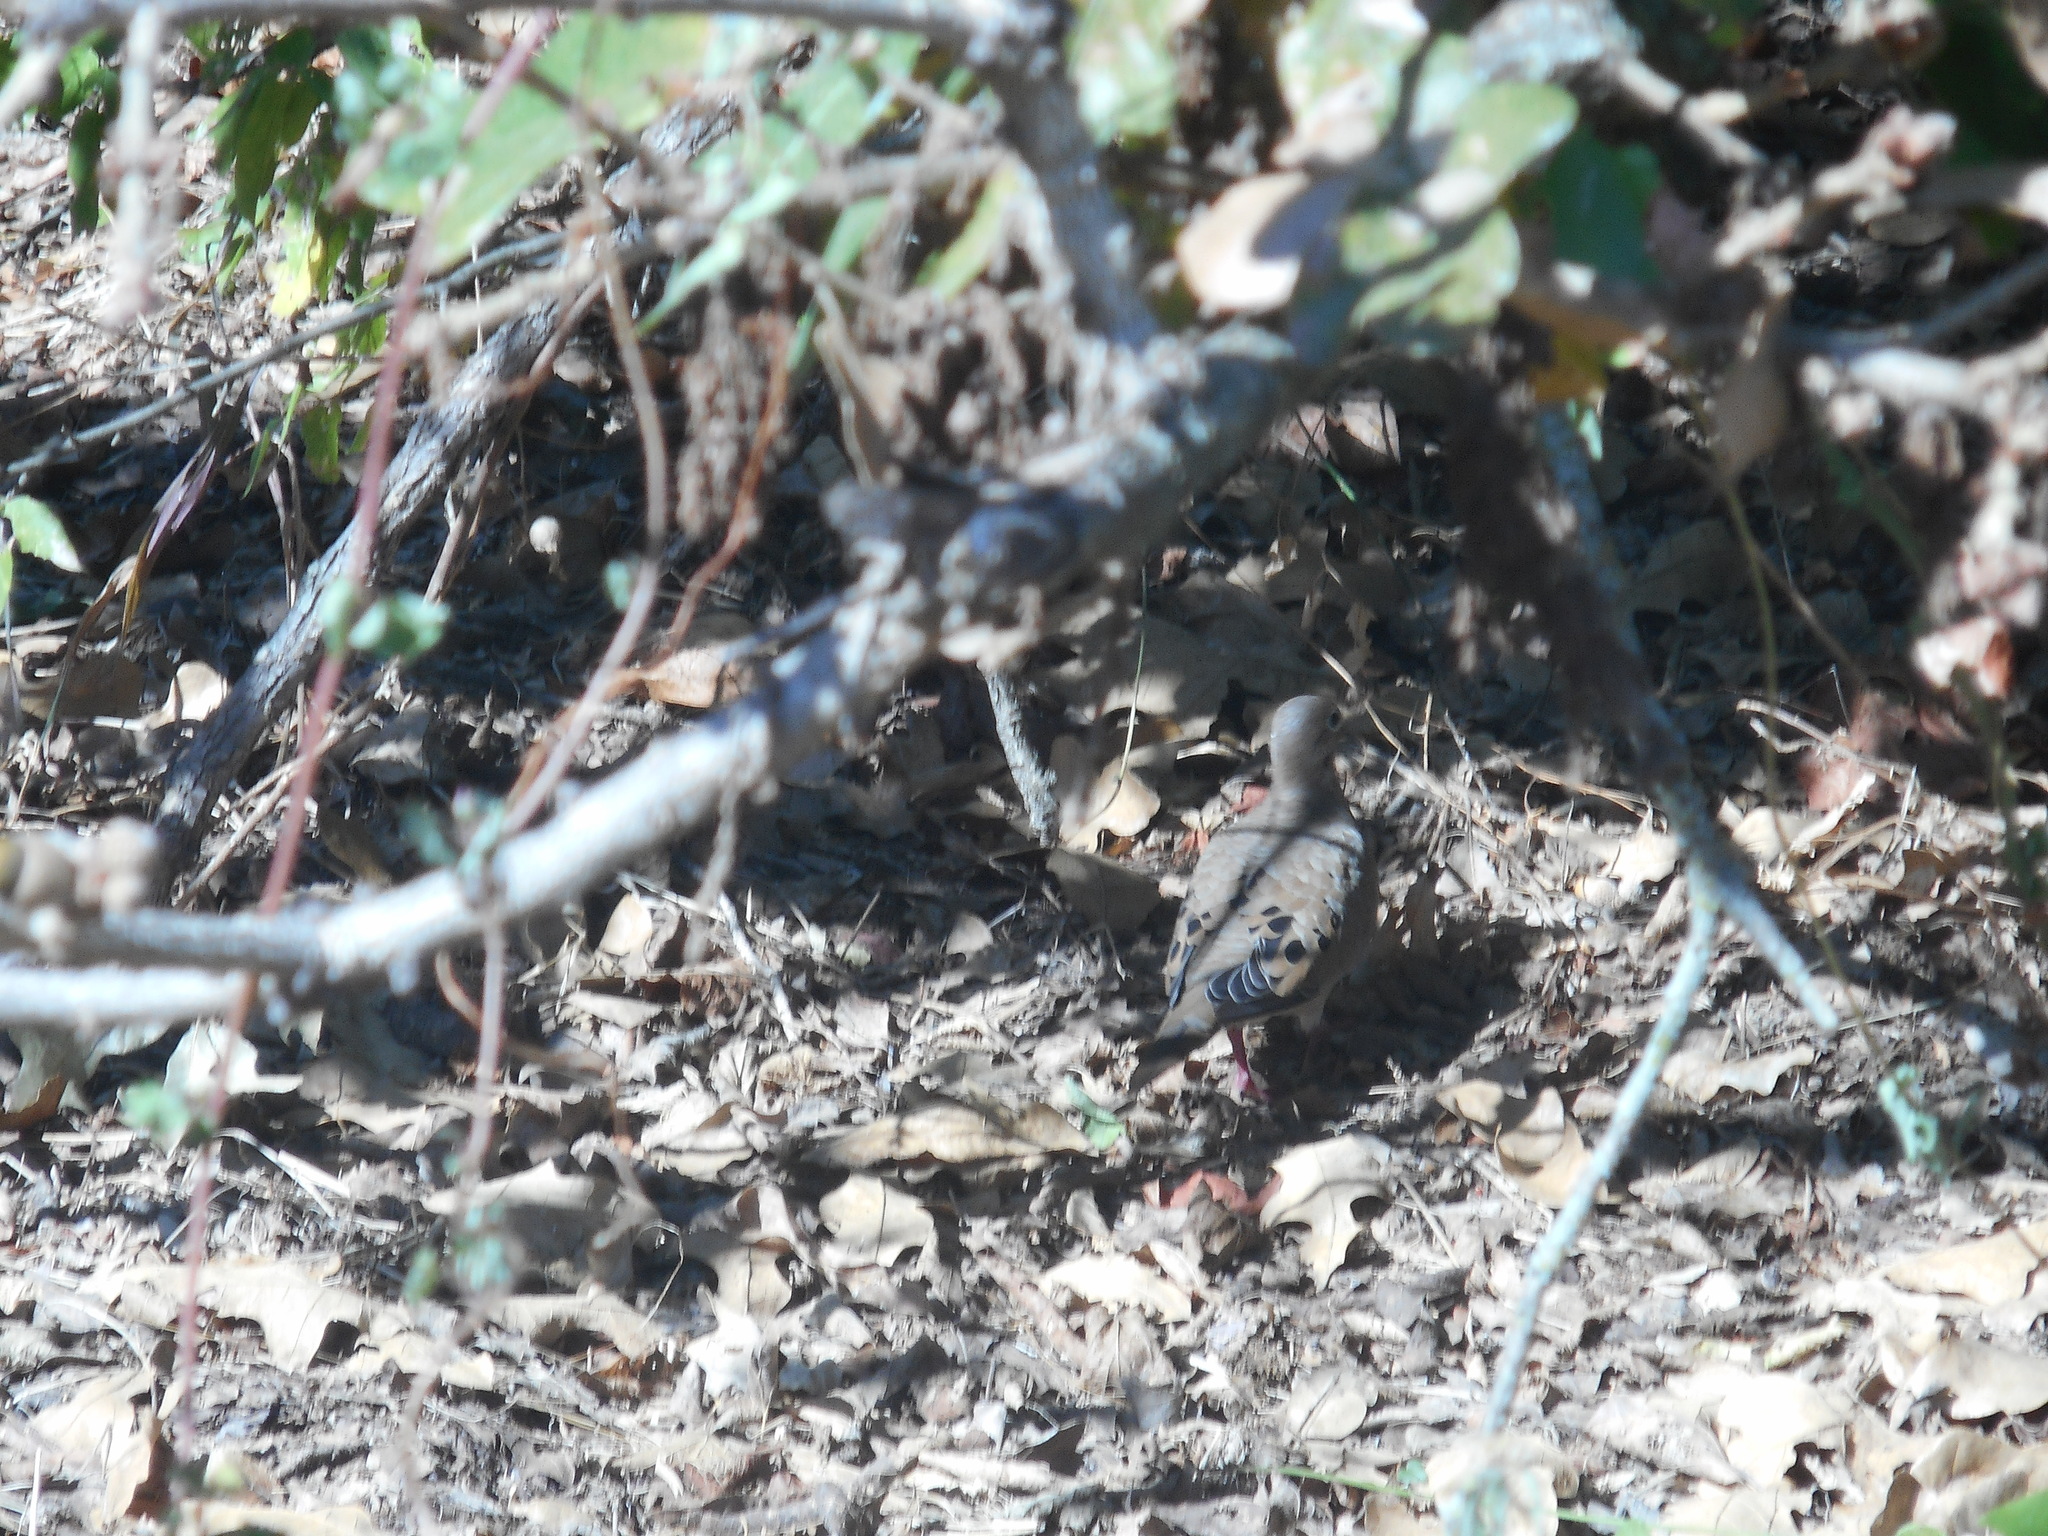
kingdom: Animalia
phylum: Chordata
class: Aves
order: Columbiformes
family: Columbidae
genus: Zenaida
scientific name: Zenaida macroura
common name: Mourning dove
